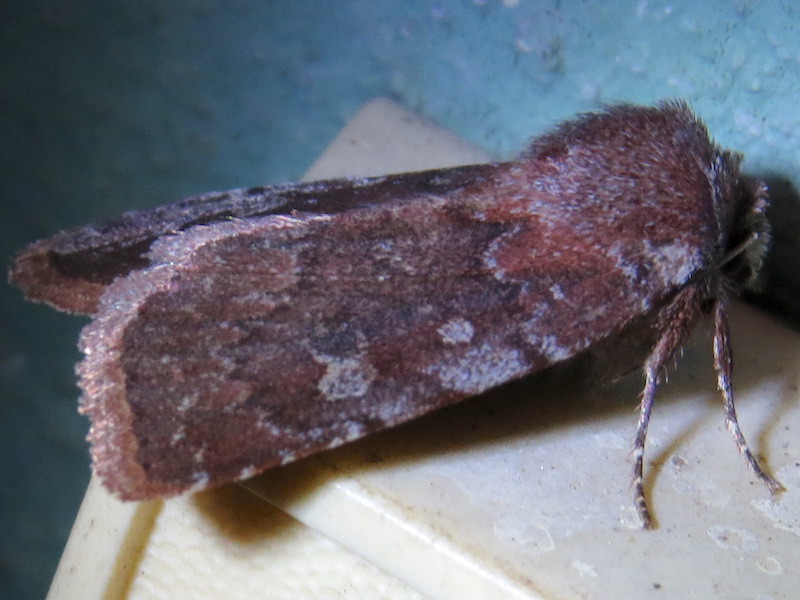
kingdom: Animalia
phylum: Arthropoda
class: Insecta
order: Lepidoptera
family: Noctuidae
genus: Cerastis
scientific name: Cerastis tenebrifera
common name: Reddish speckled dart
